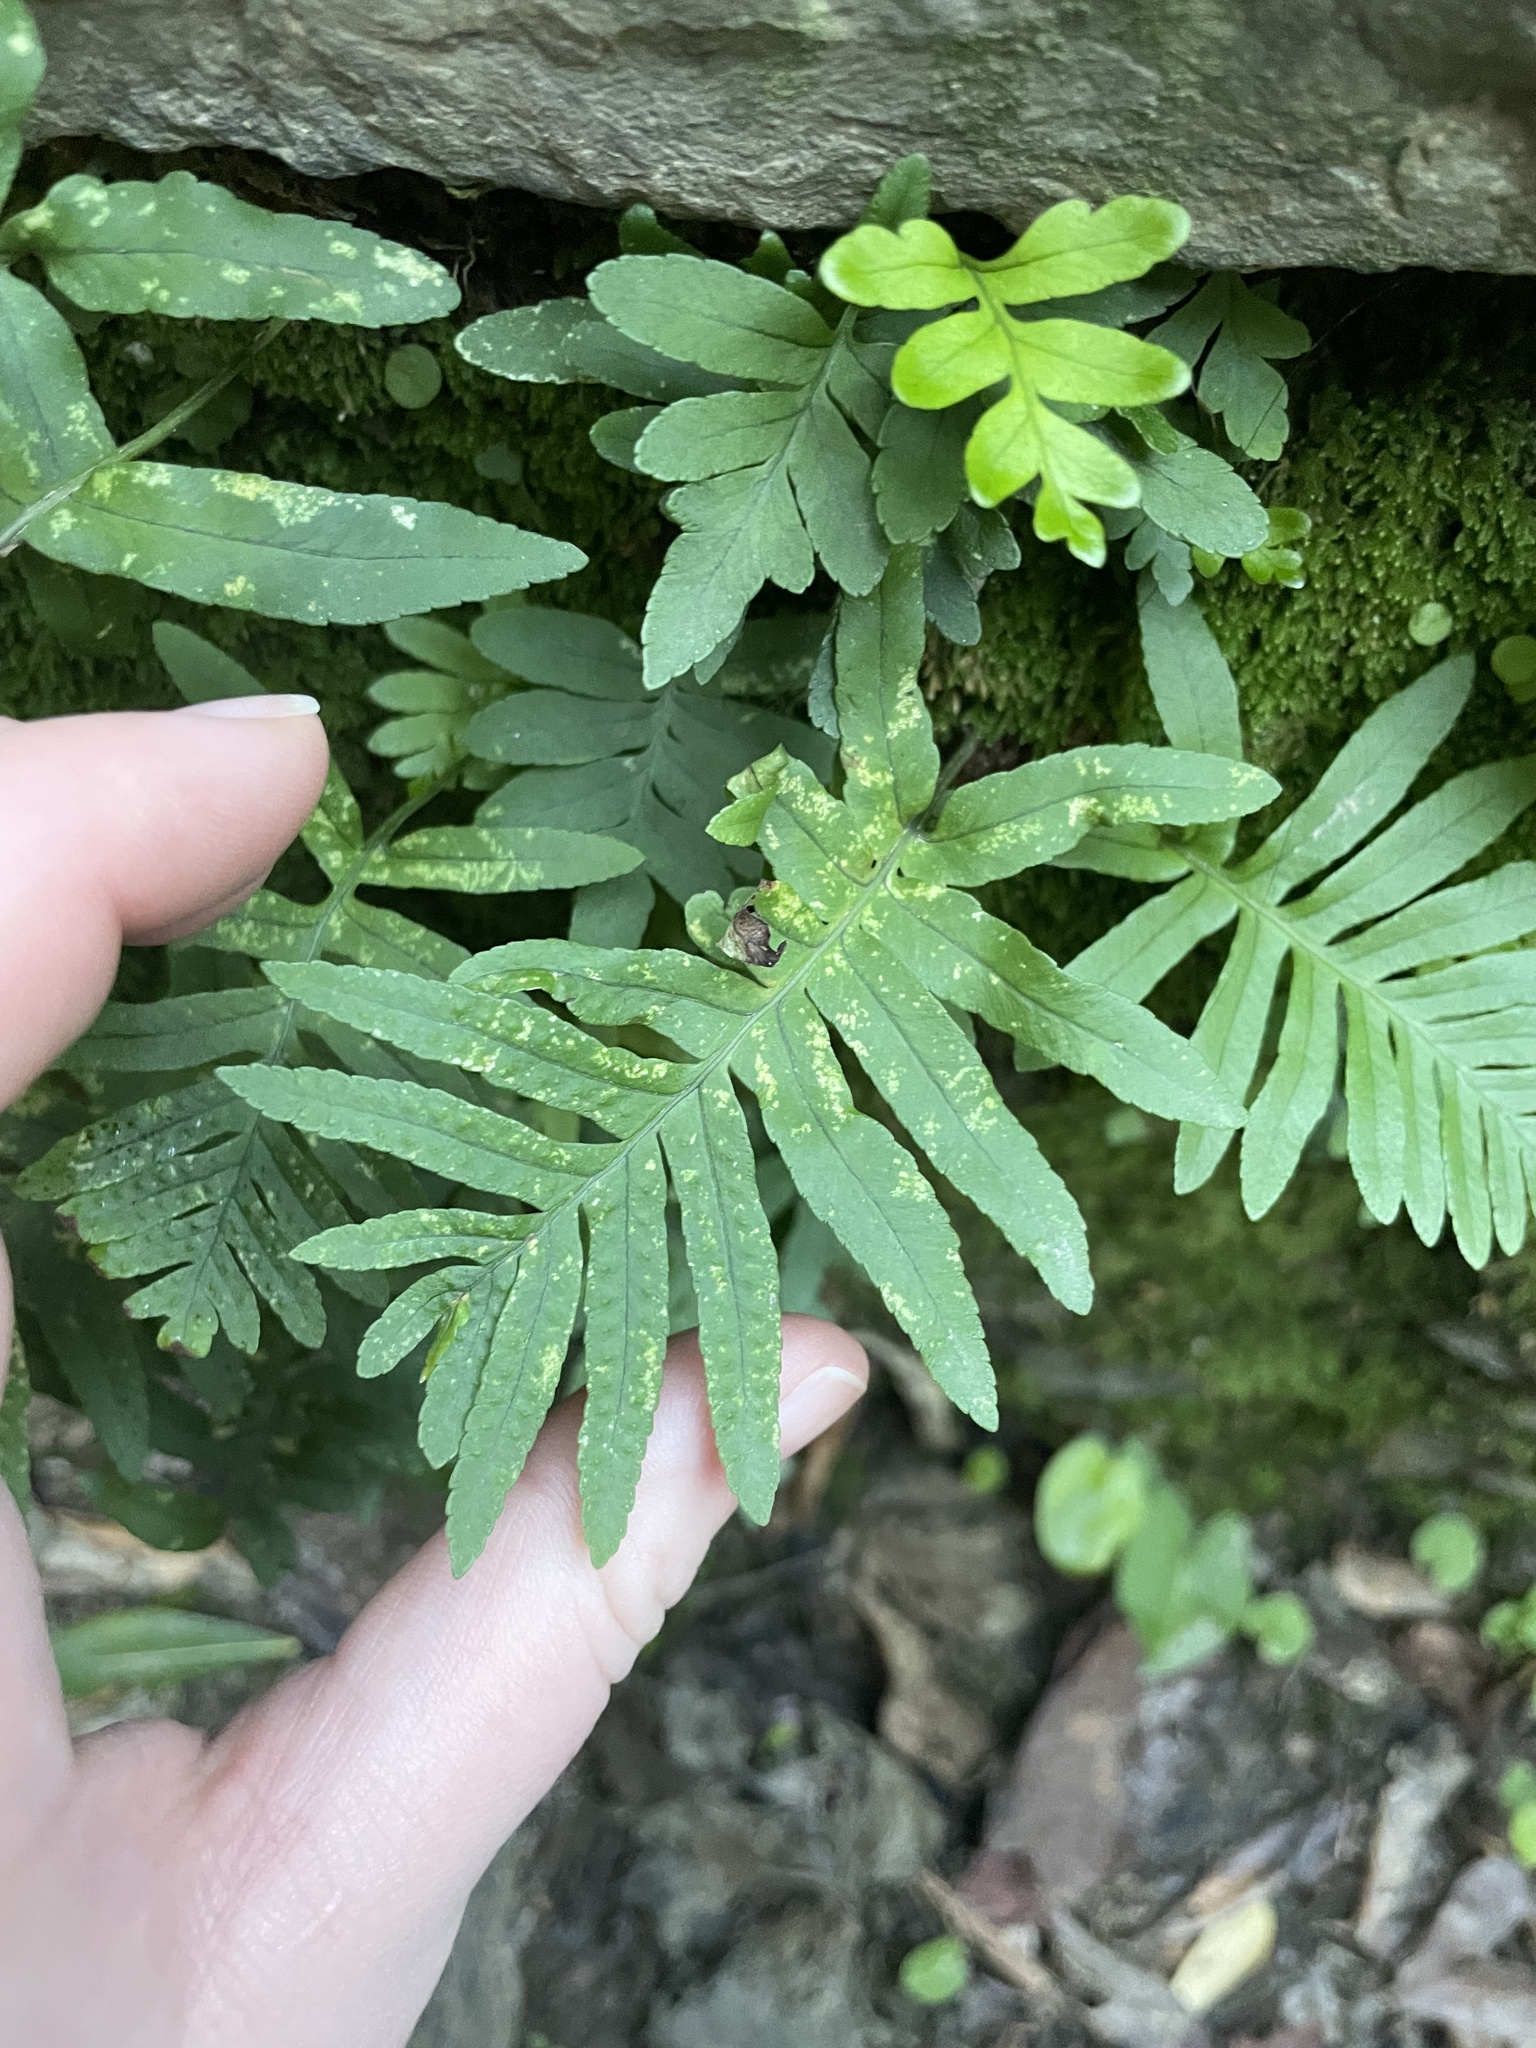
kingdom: Plantae
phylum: Tracheophyta
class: Polypodiopsida
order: Polypodiales
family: Polypodiaceae
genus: Polypodium
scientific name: Polypodium cambricum
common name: Southern polypody
